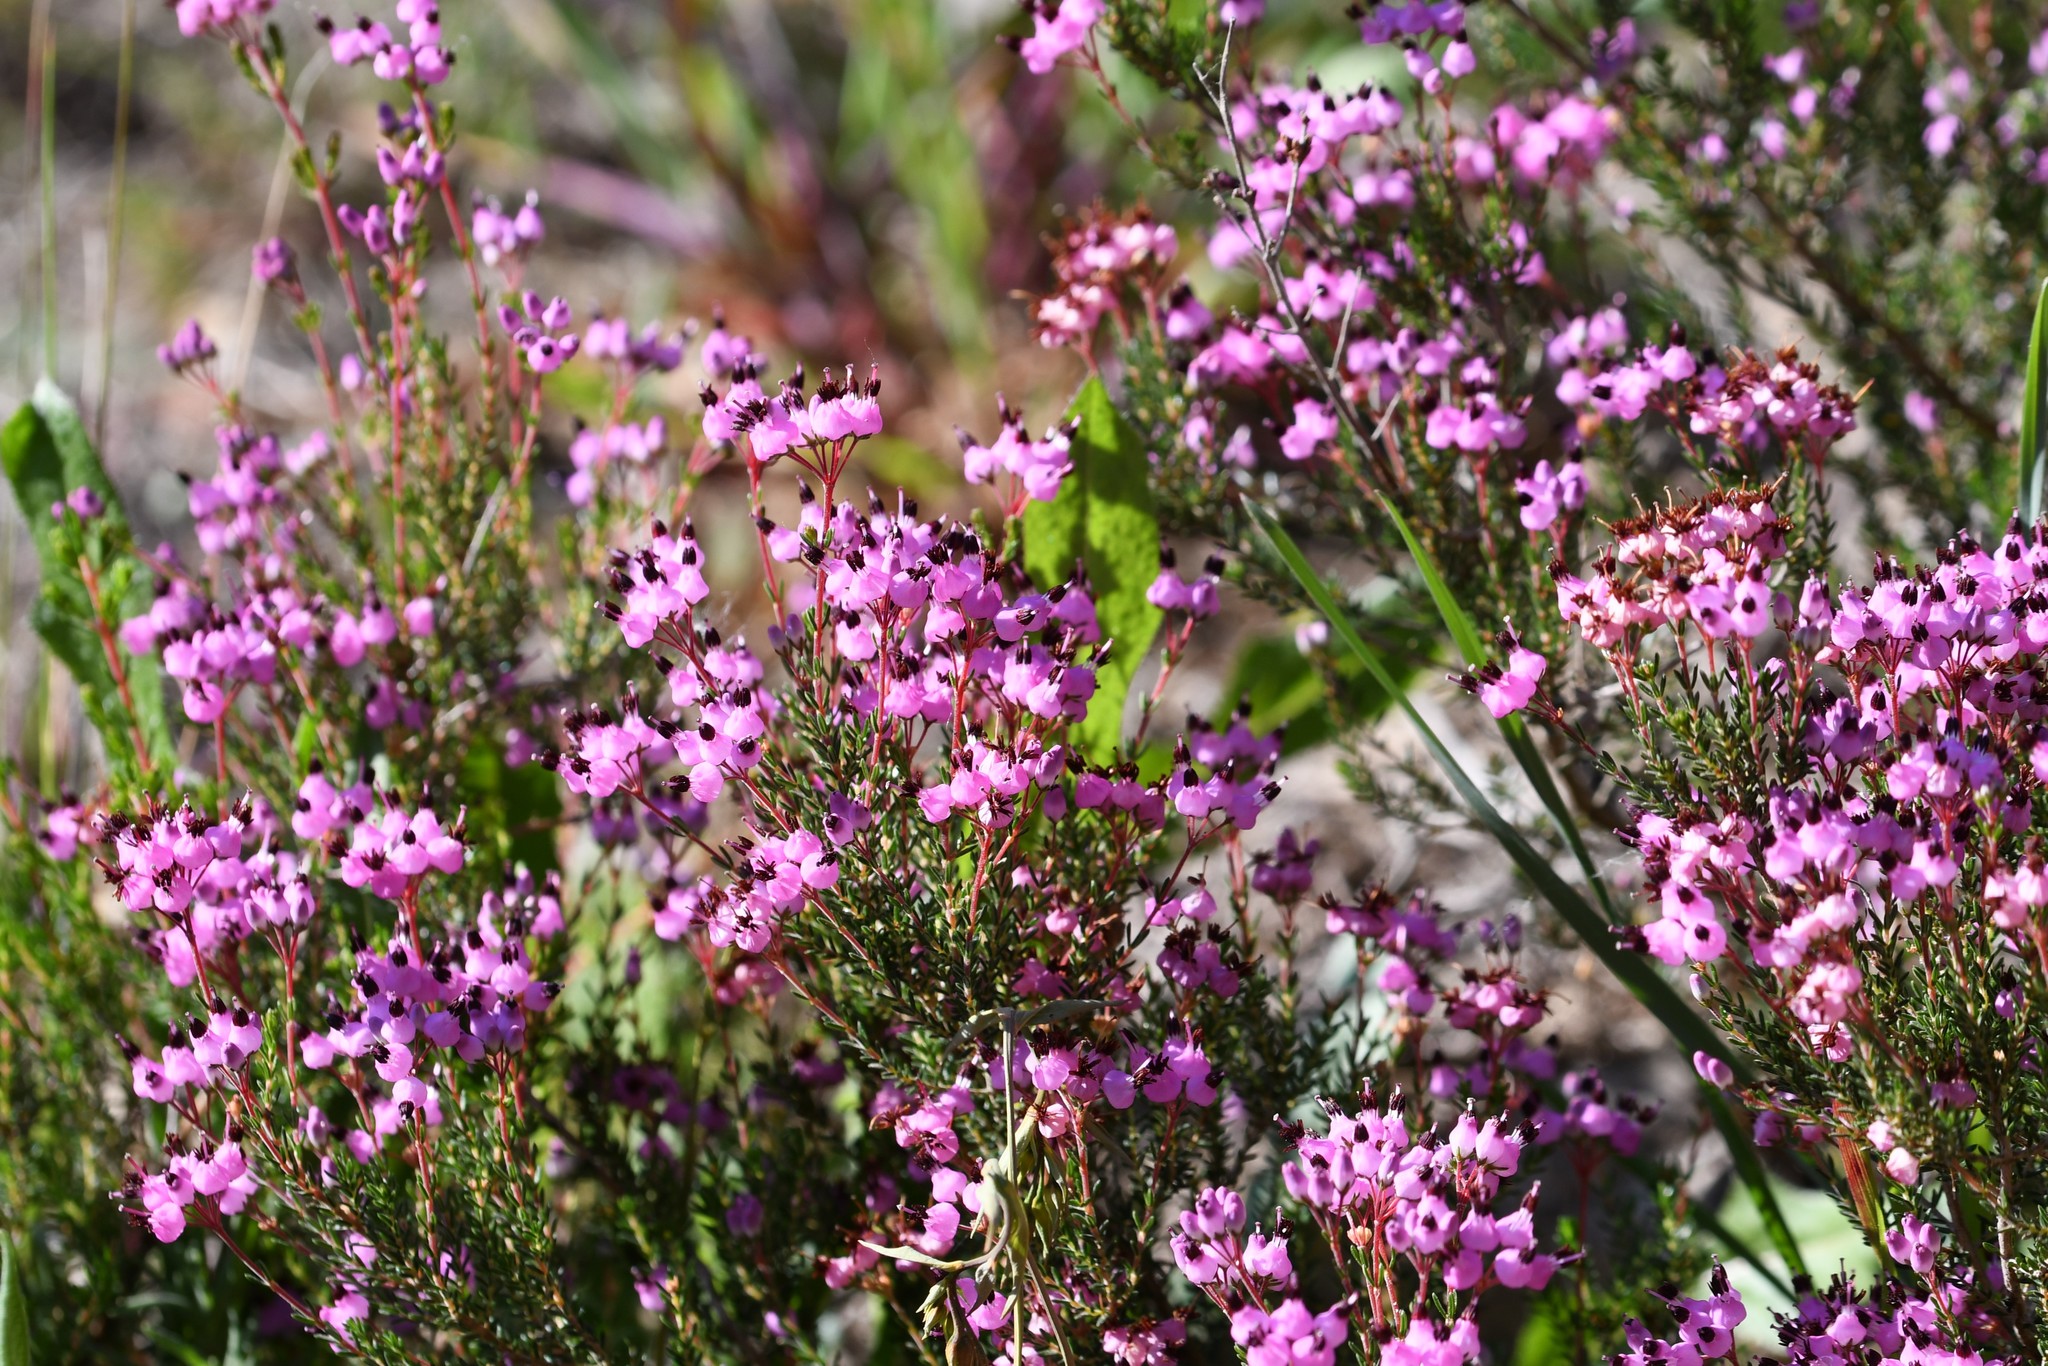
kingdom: Plantae
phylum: Tracheophyta
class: Magnoliopsida
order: Ericales
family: Ericaceae
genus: Erica
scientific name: Erica umbellata
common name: Dwarf spanish heath
